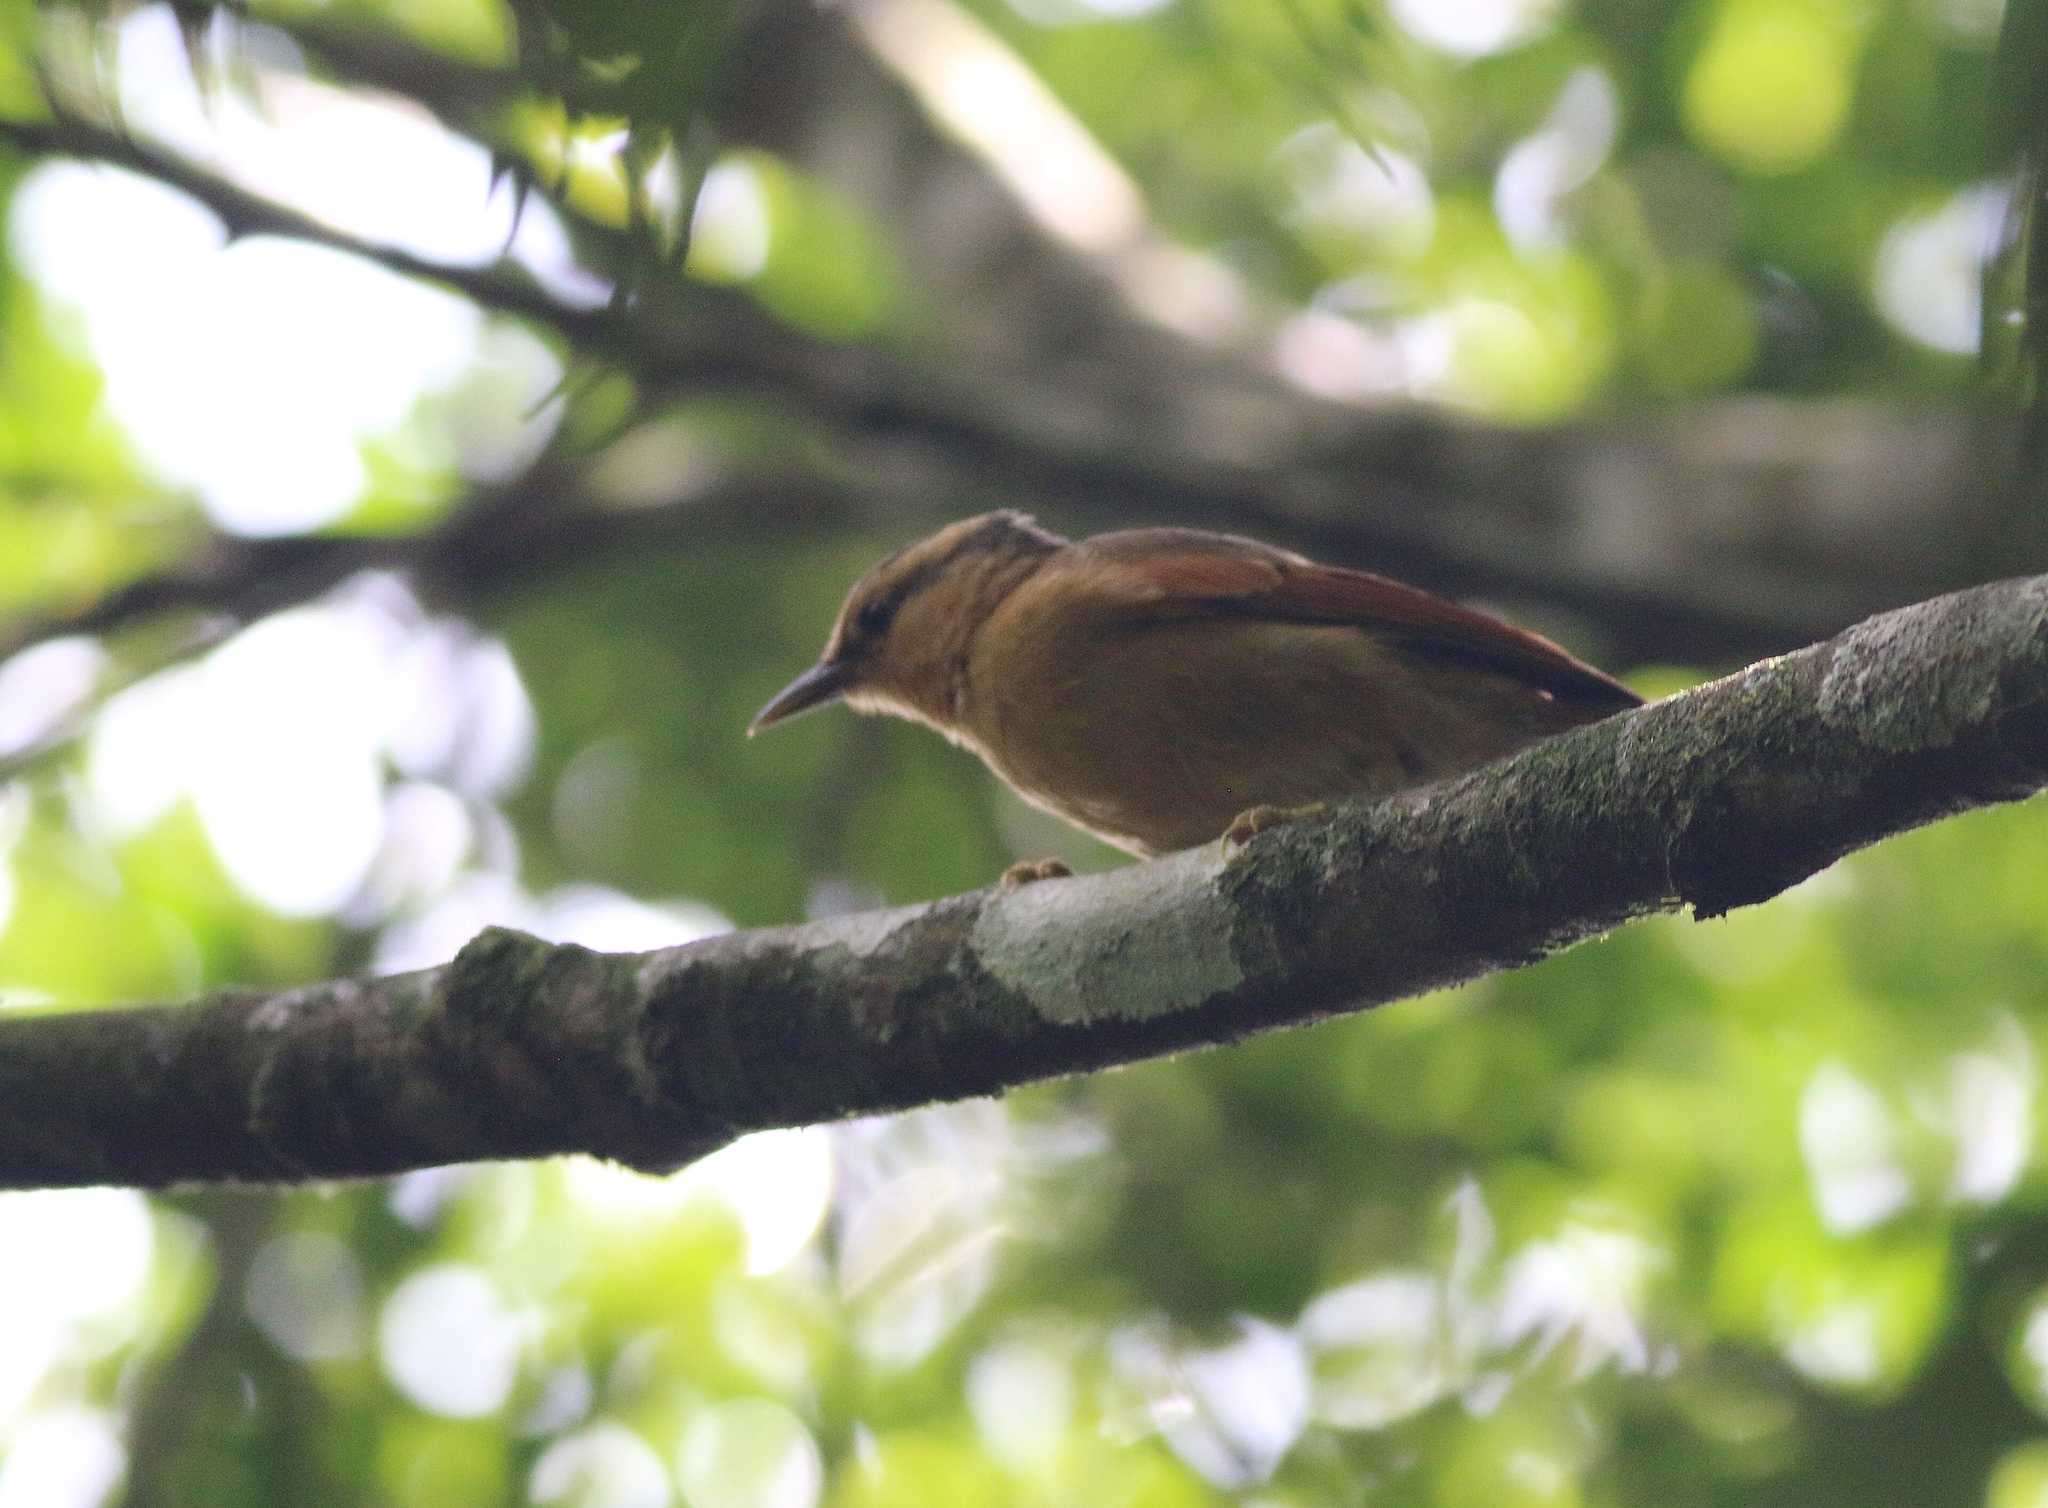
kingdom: Animalia
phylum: Chordata
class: Aves
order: Passeriformes
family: Furnariidae
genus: Philydor
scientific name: Philydor rufum
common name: Buff-fronted foliage-gleaner
